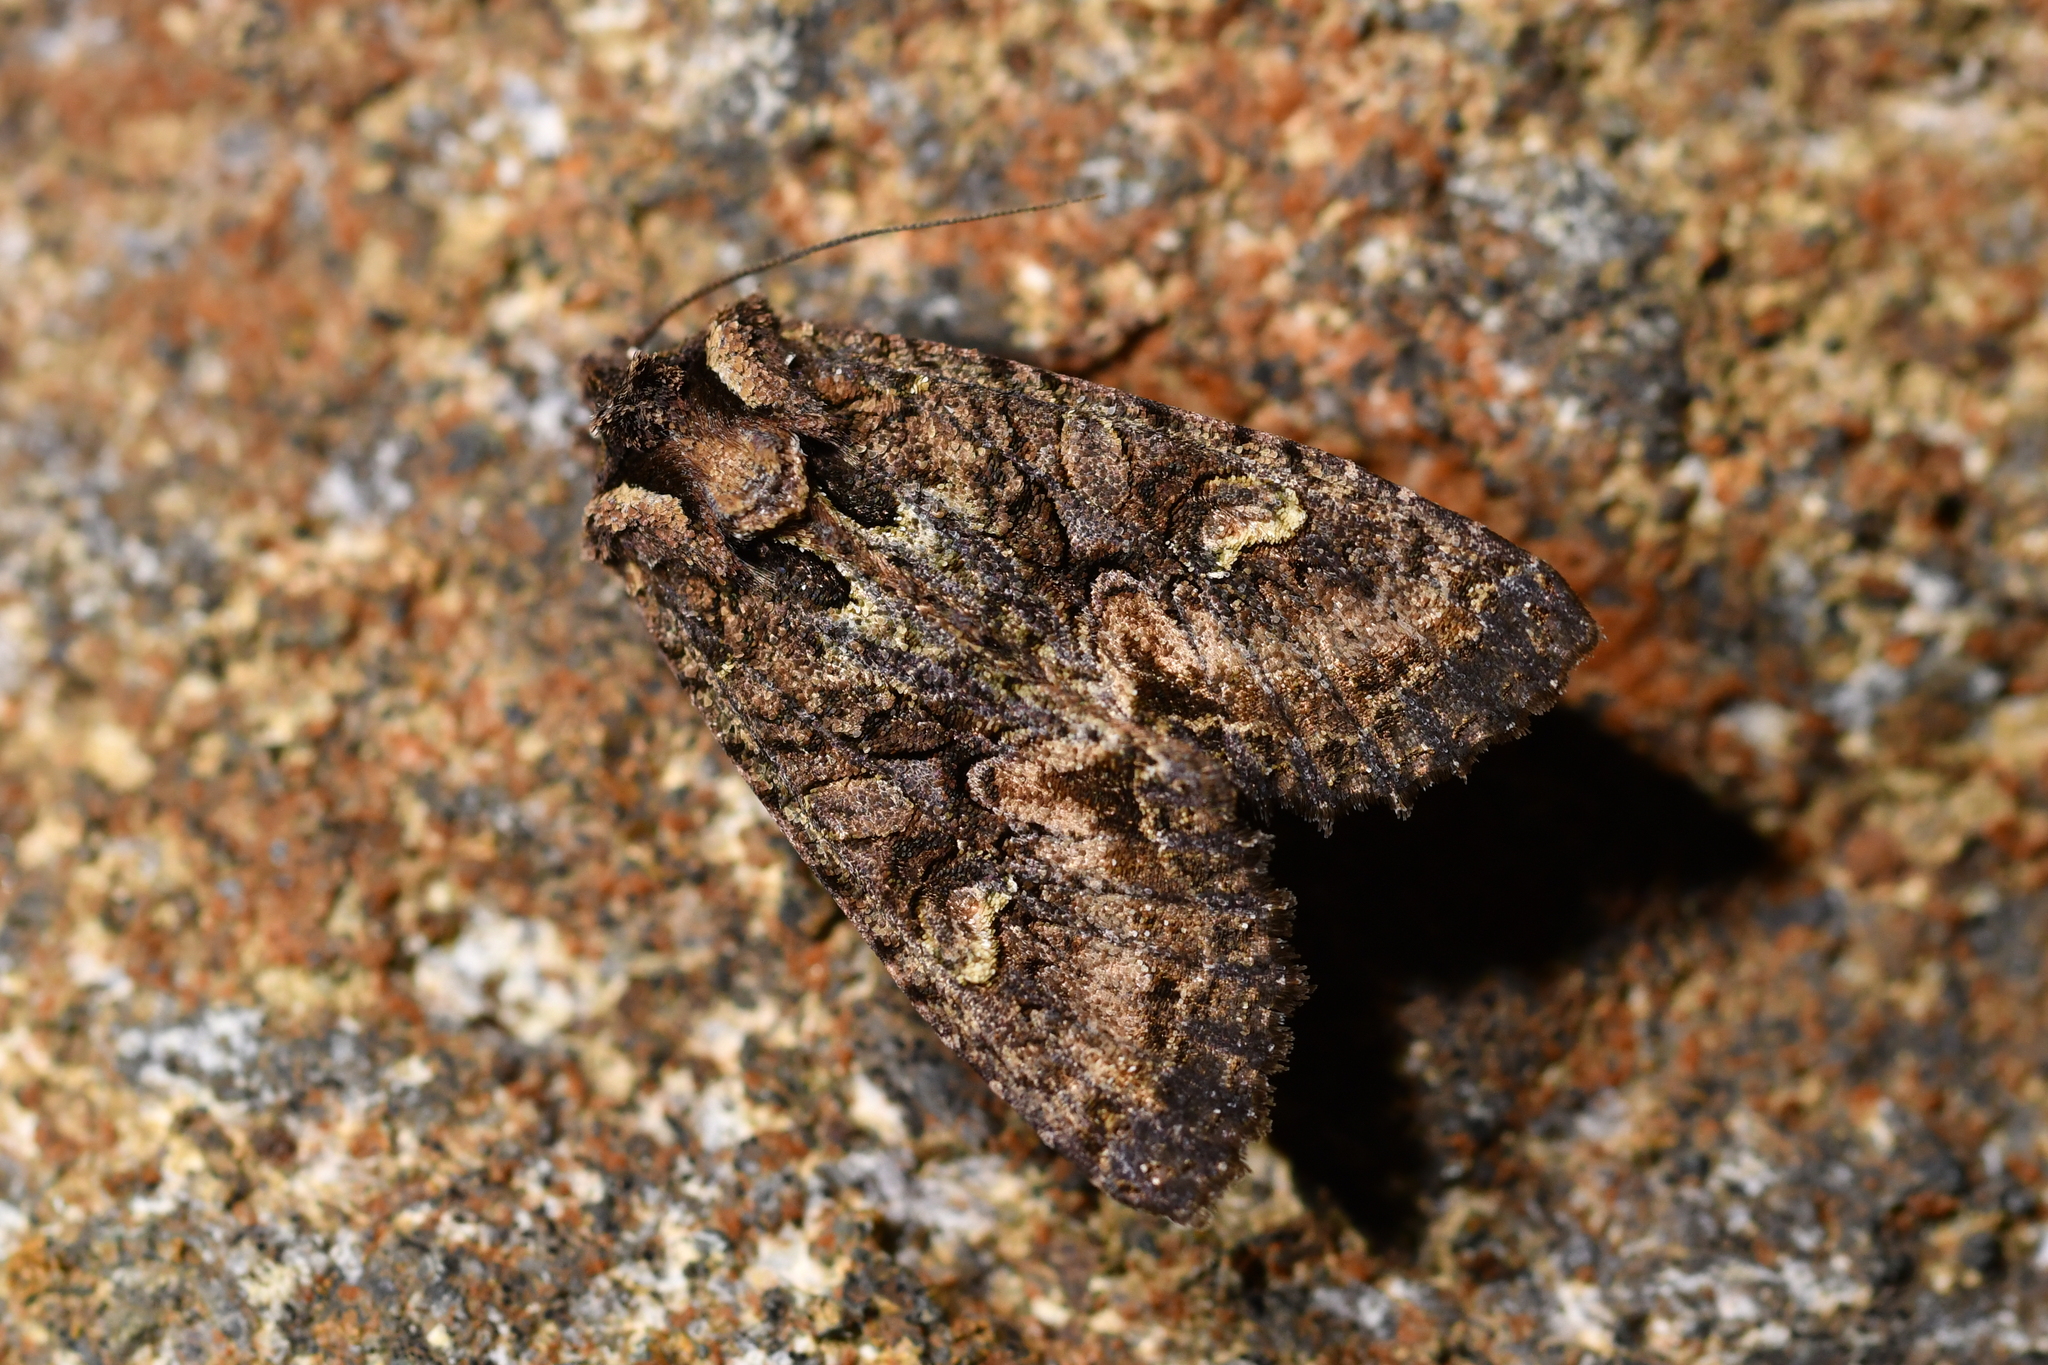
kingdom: Animalia
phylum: Arthropoda
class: Insecta
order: Lepidoptera
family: Noctuidae
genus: Meterana
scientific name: Meterana dotata
